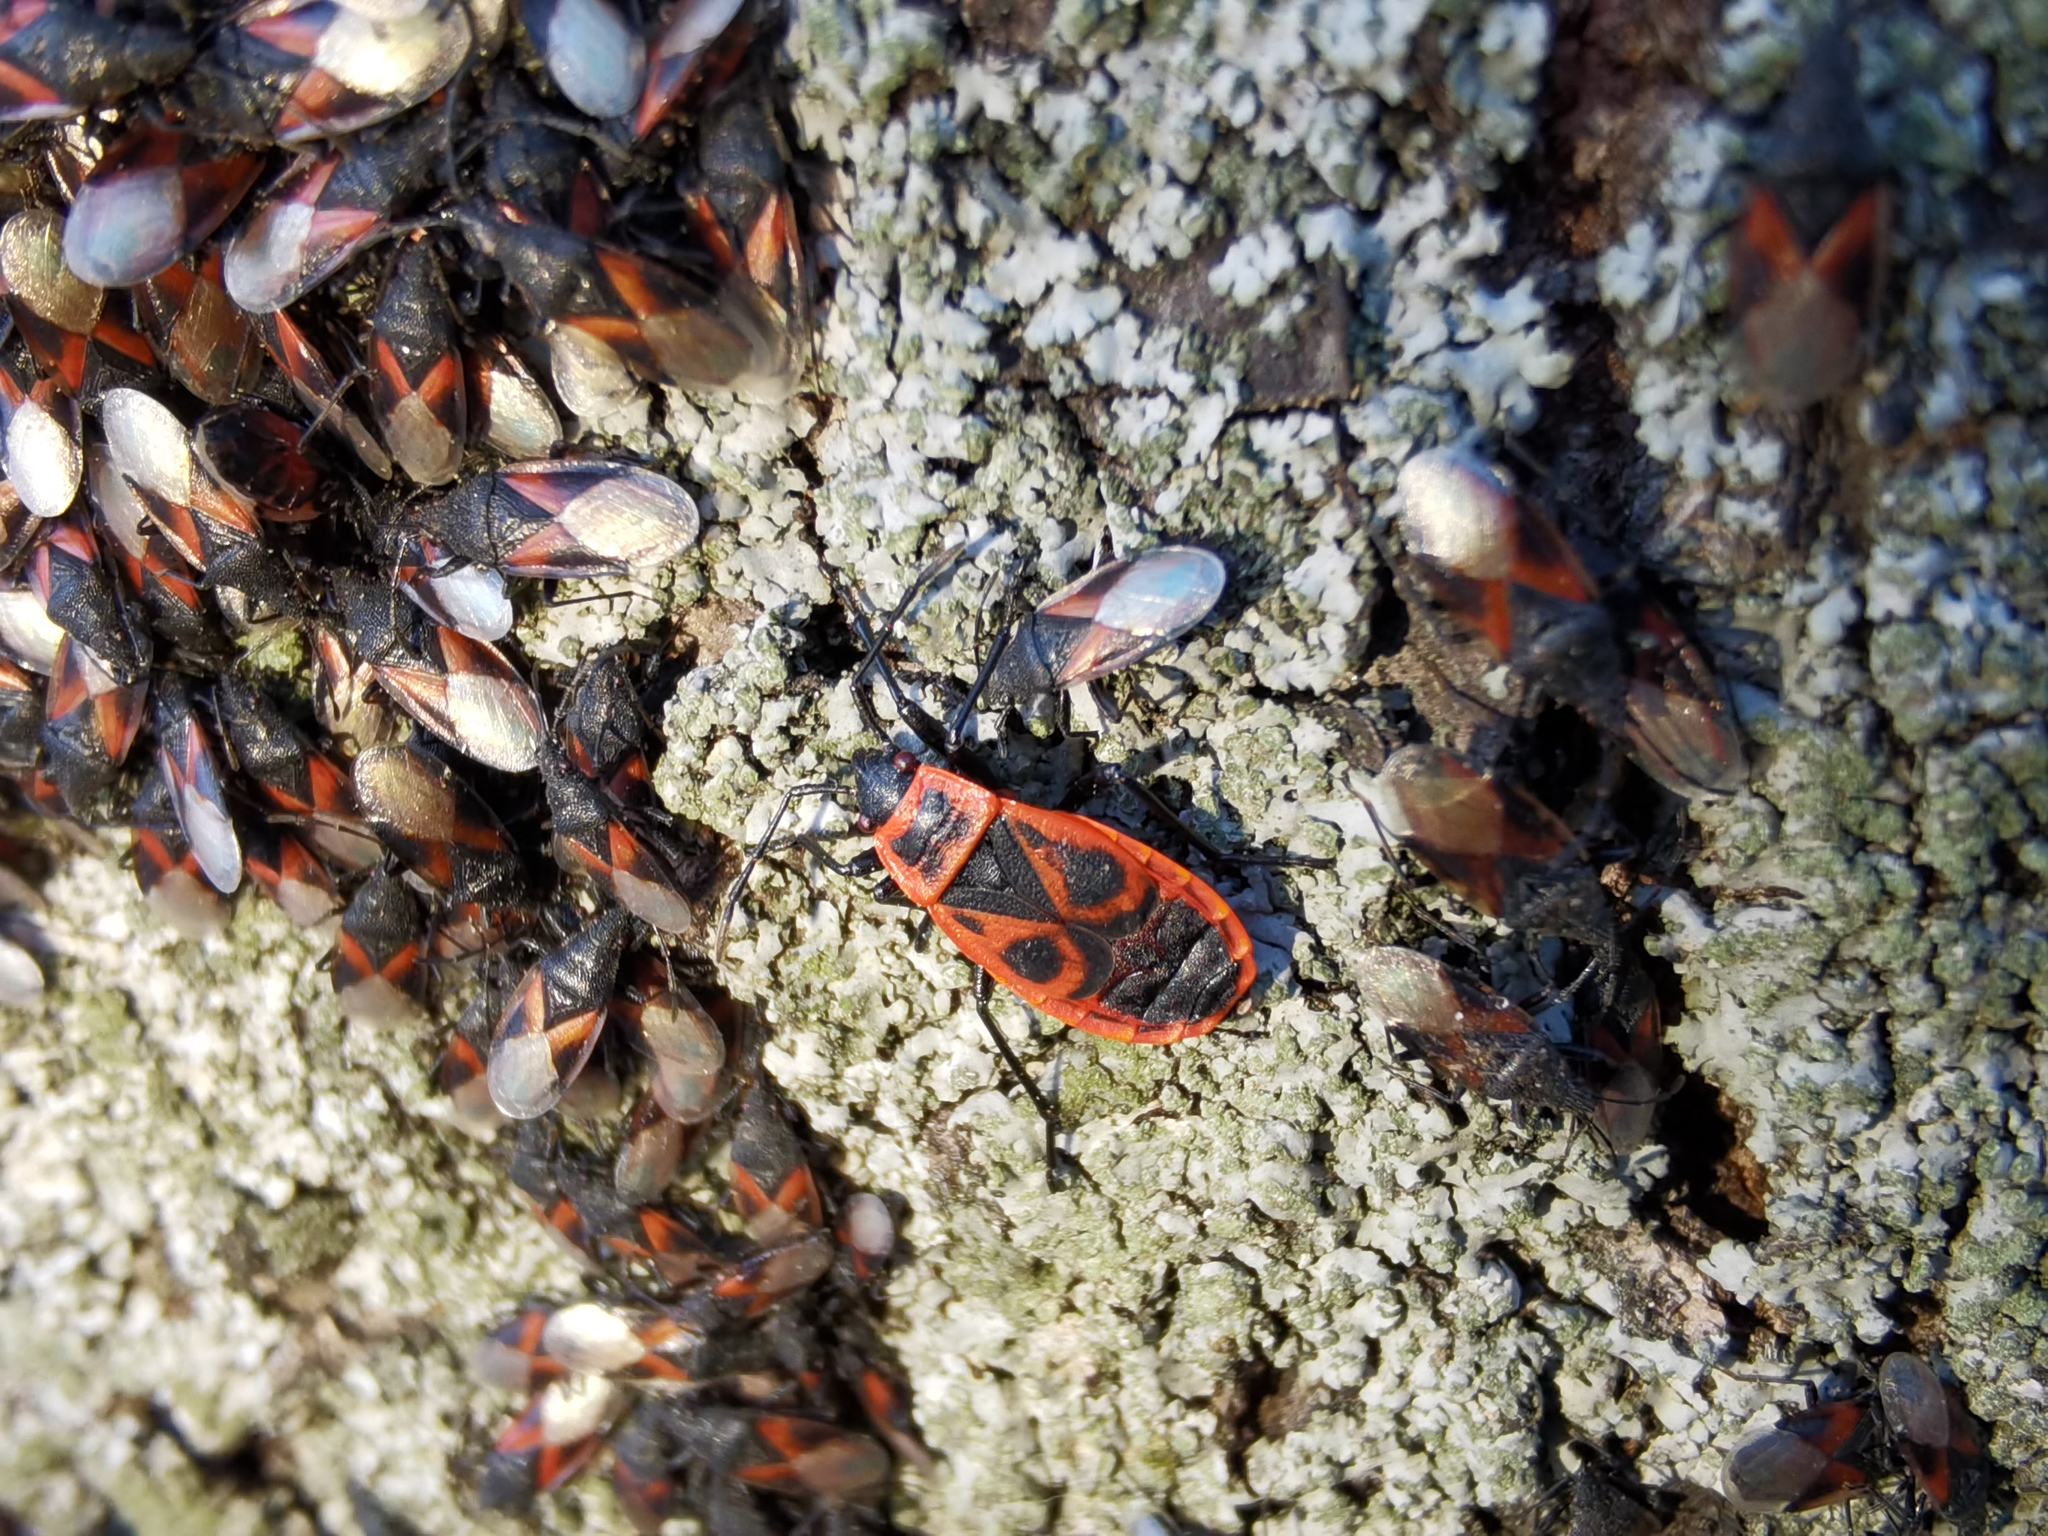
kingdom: Animalia
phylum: Arthropoda
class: Insecta
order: Hemiptera
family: Pyrrhocoridae
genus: Pyrrhocoris
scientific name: Pyrrhocoris apterus
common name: Firebug
